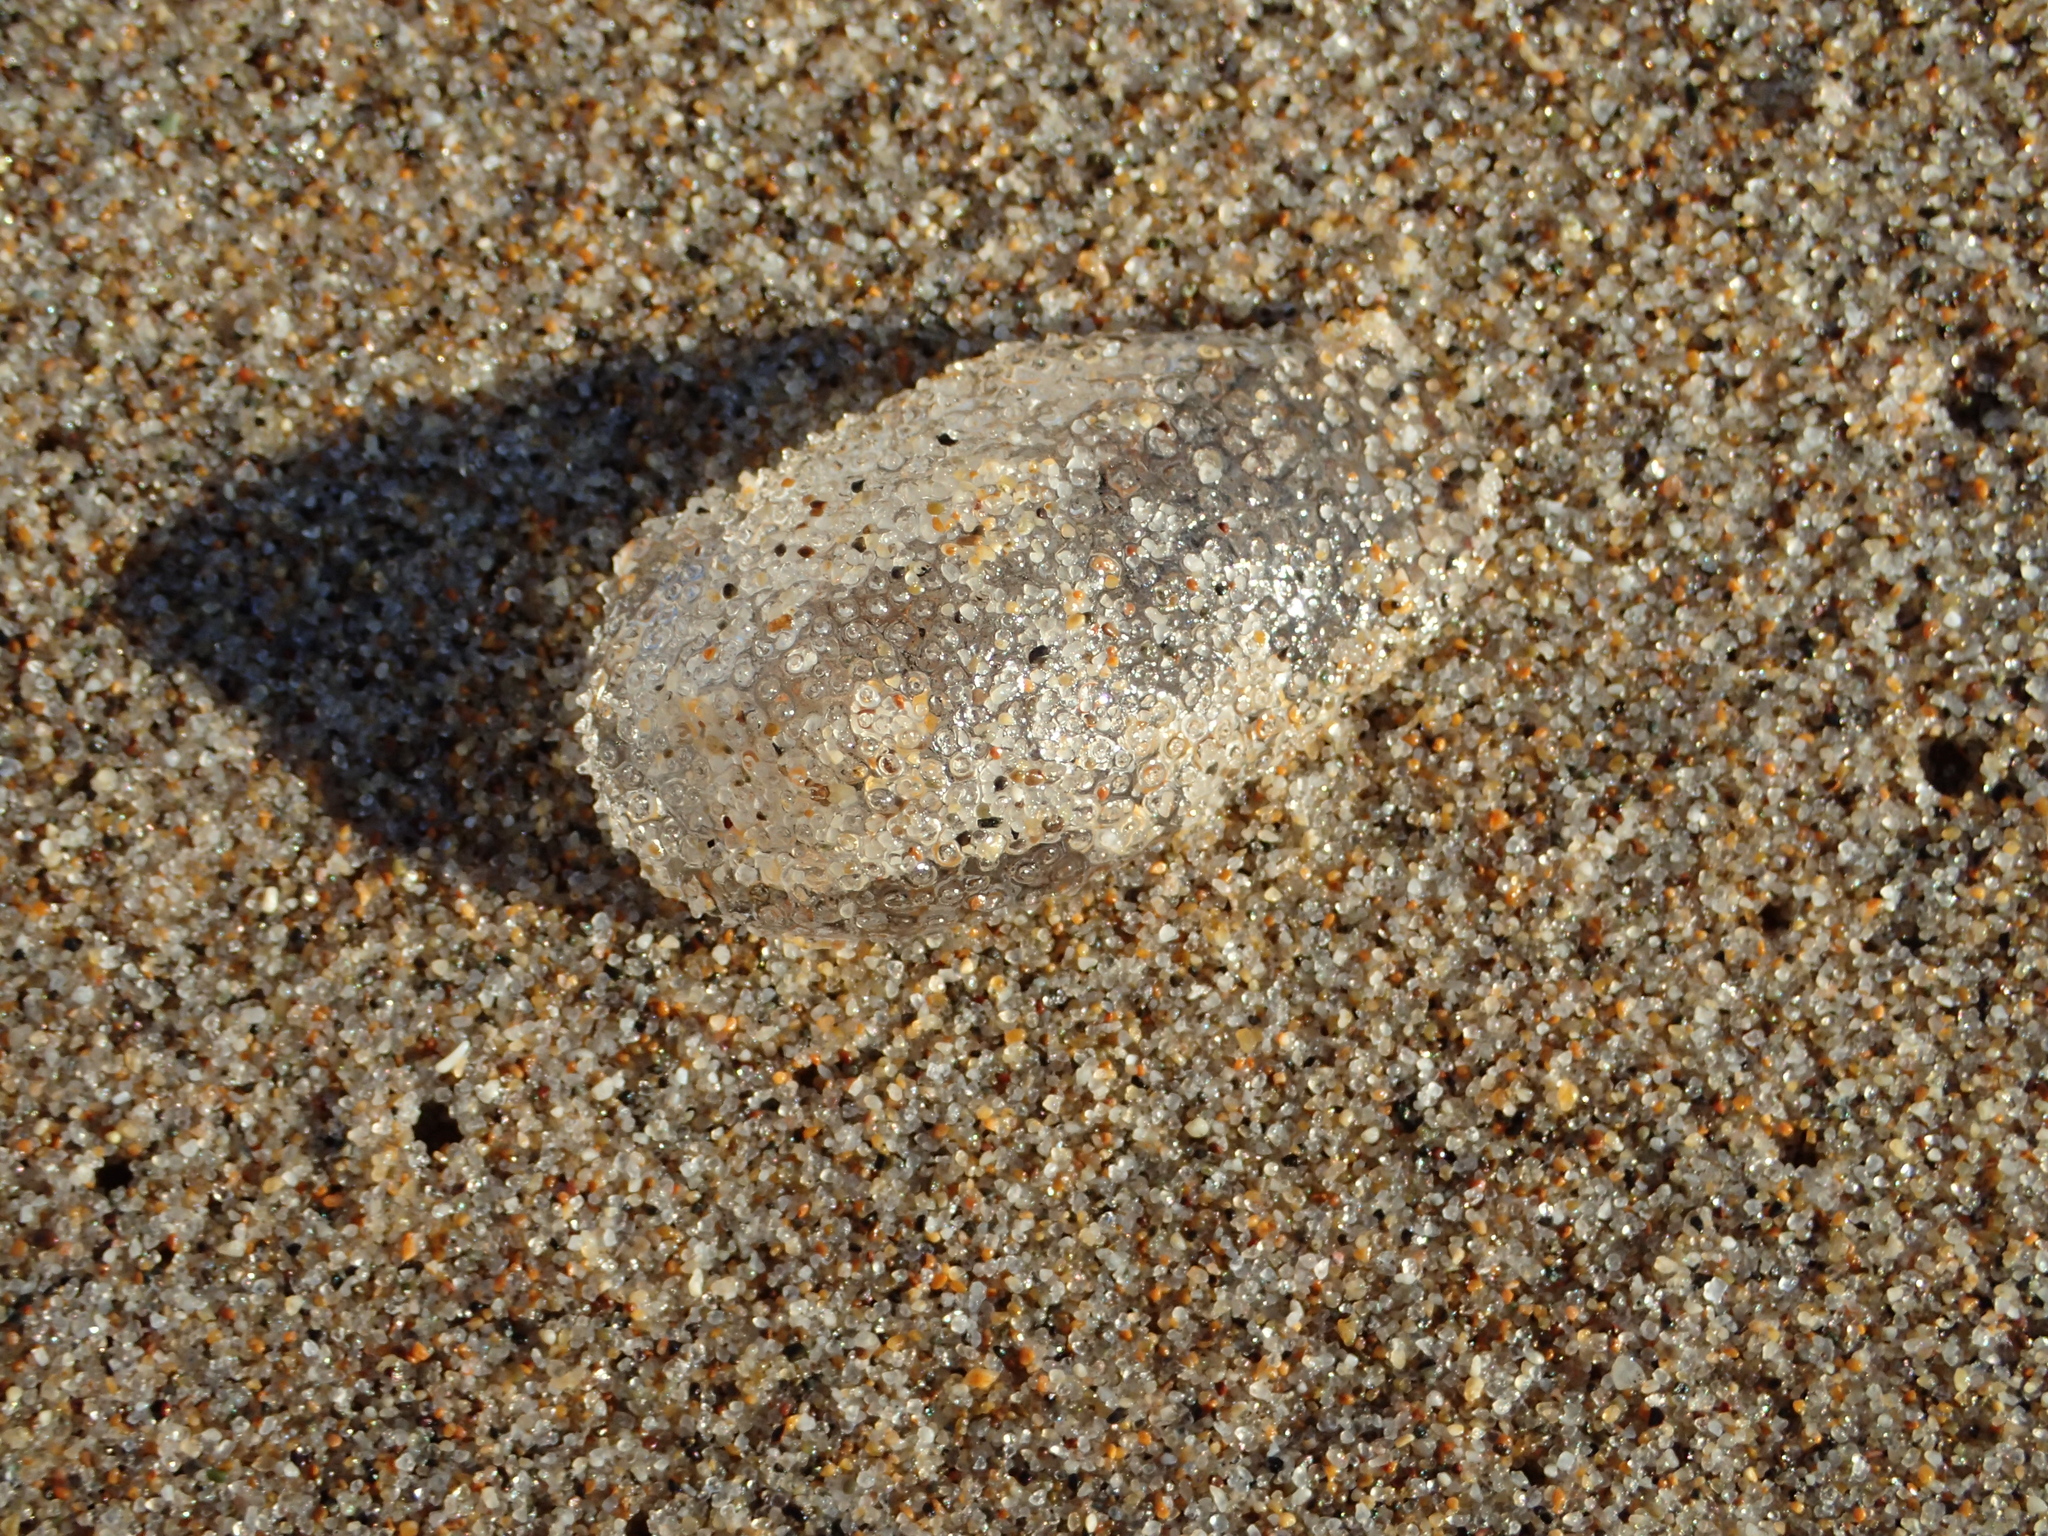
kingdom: Animalia
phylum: Mollusca
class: Gastropoda
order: Pteropoda
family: Cymbuliidae
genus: Corolla
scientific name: Corolla spectabilis
